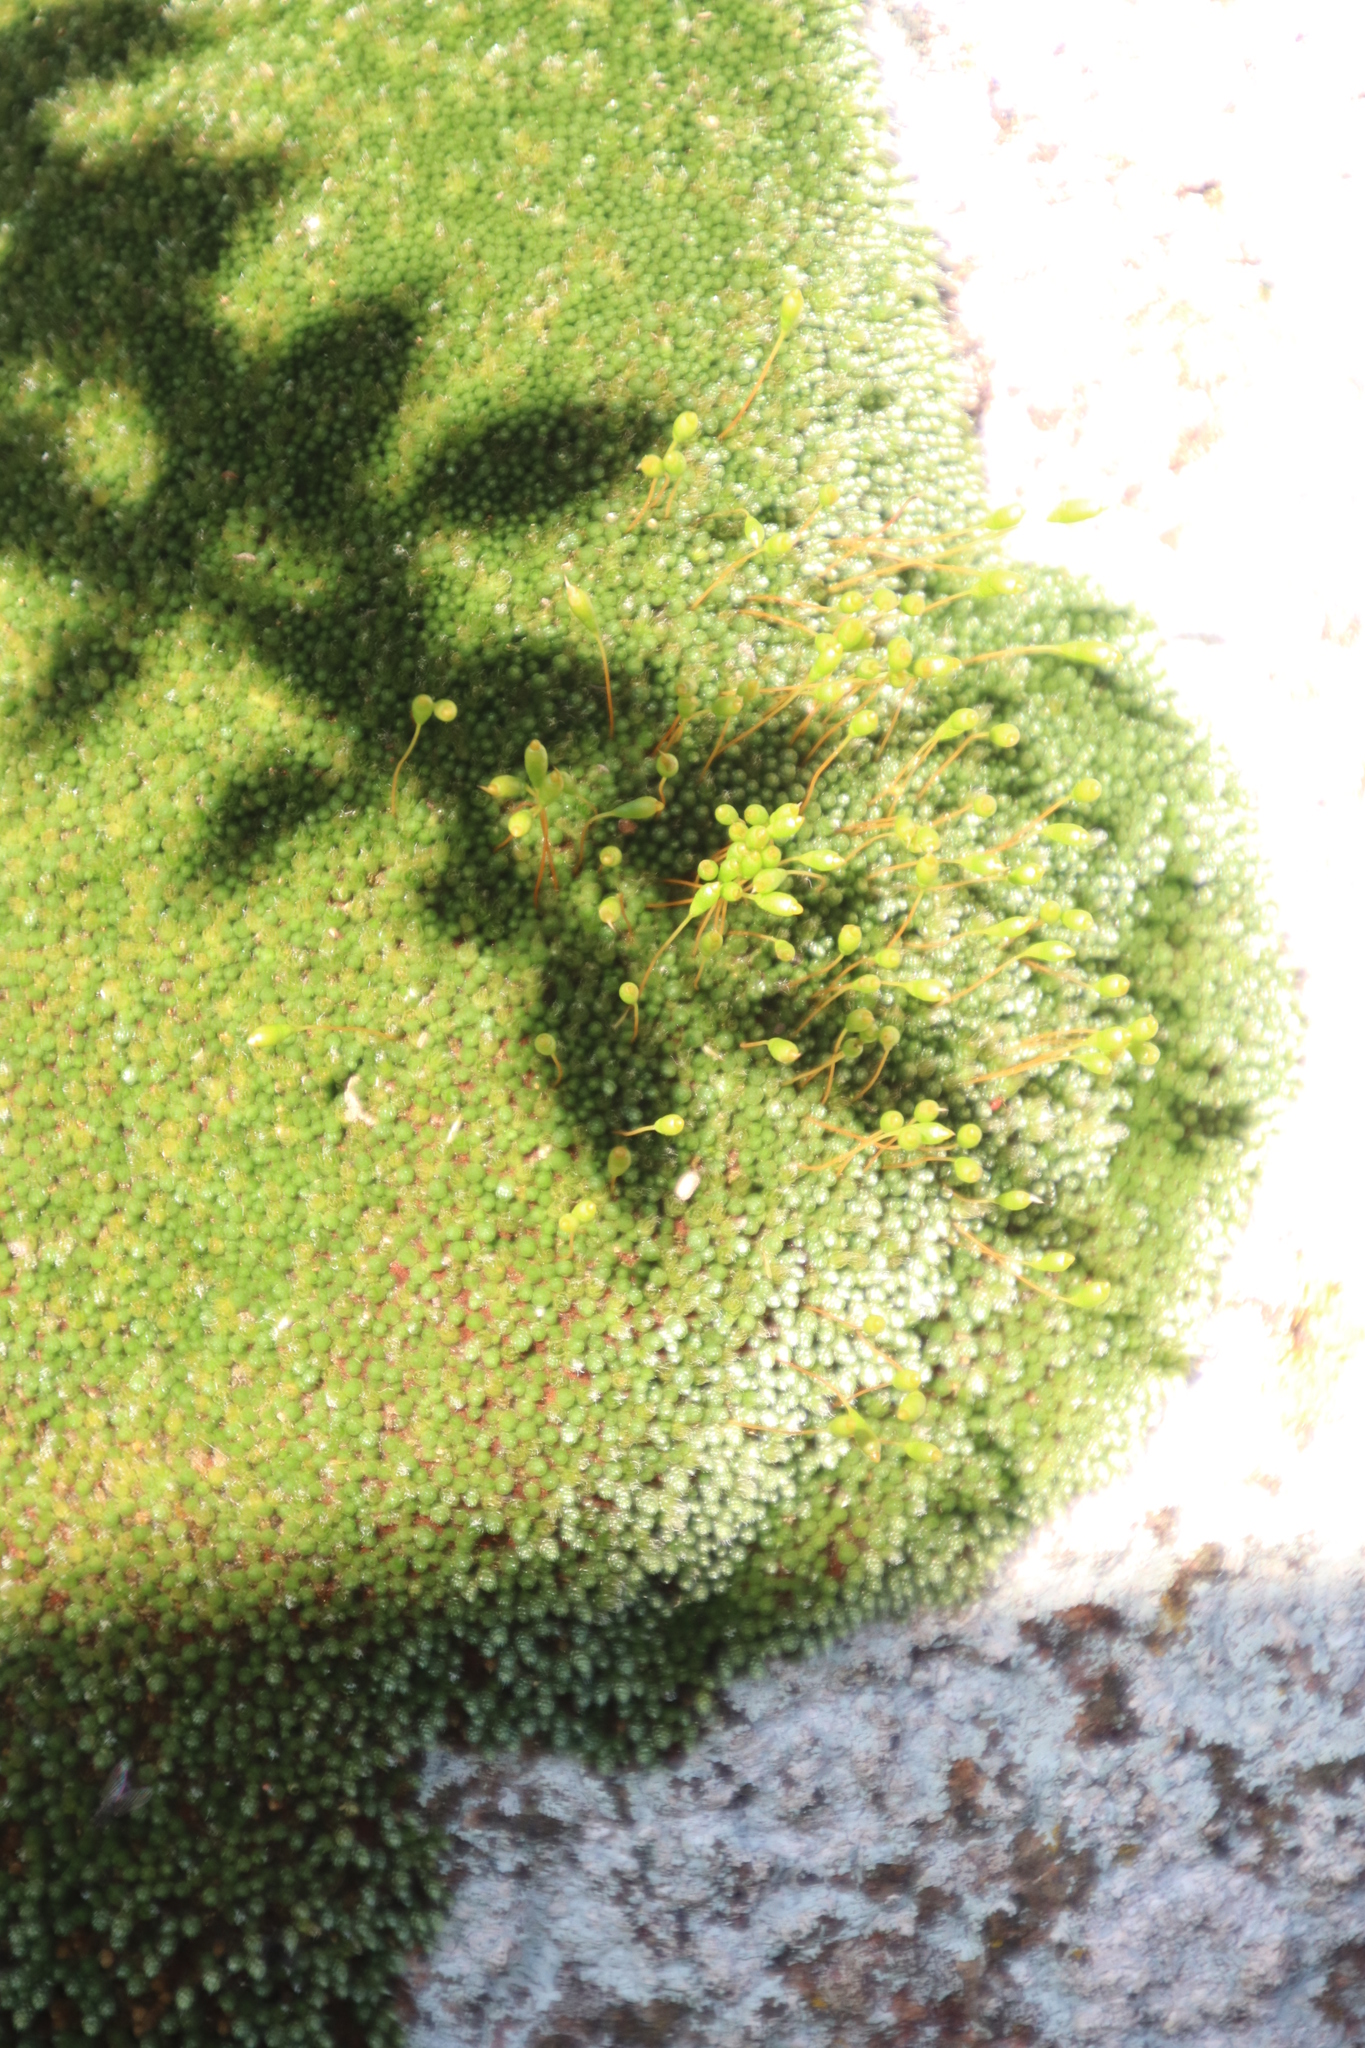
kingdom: Plantae
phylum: Bryophyta
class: Bryopsida
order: Bryales
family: Bryaceae
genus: Bryum
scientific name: Bryum argenteum
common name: Silver-moss
